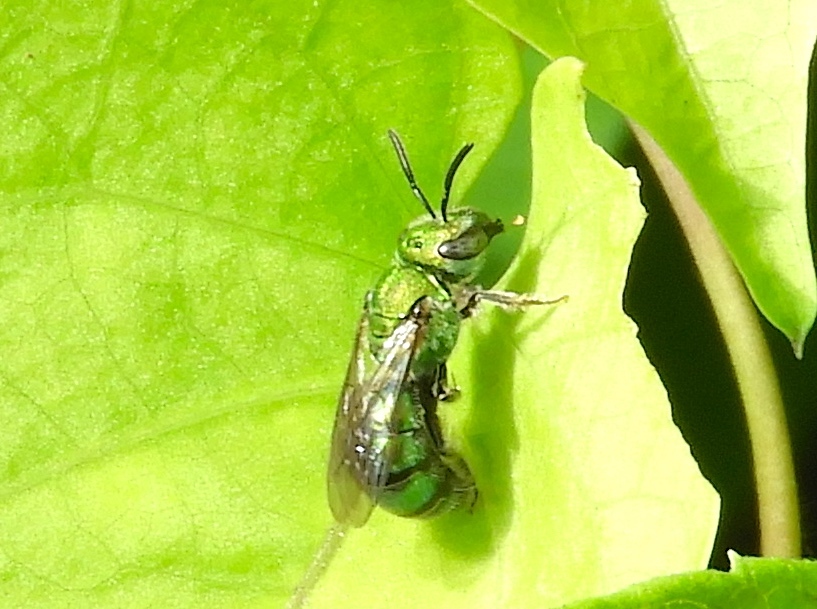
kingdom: Animalia
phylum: Arthropoda
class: Insecta
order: Hymenoptera
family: Halictidae
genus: Augochlora
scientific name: Augochlora
